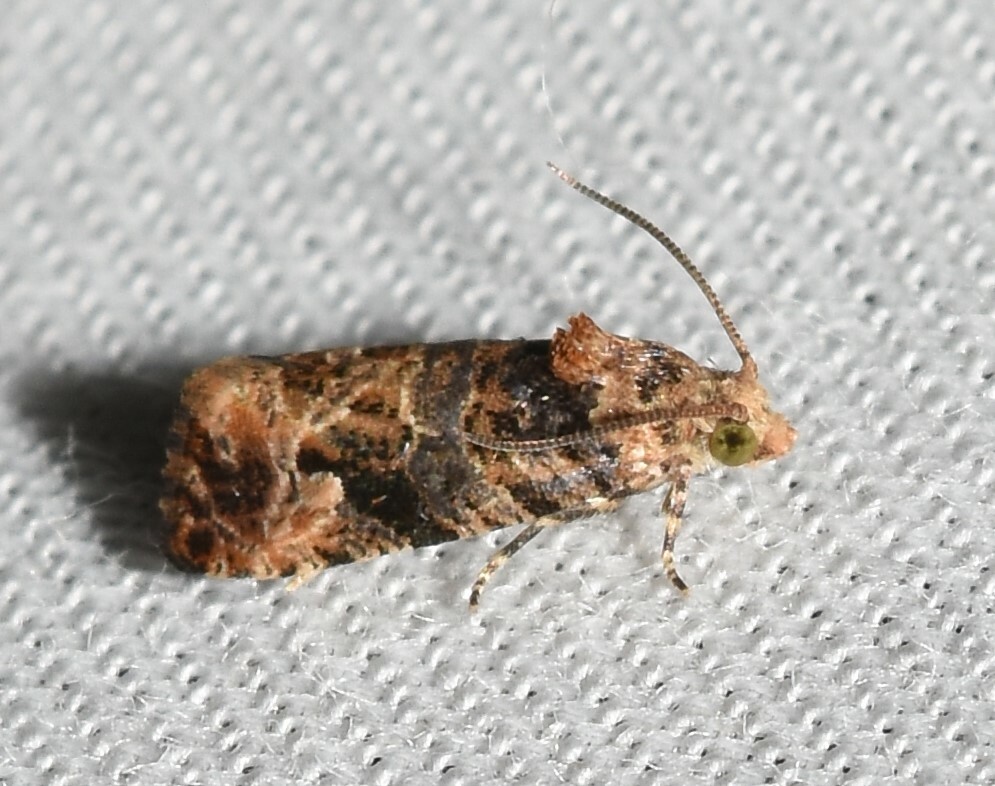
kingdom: Animalia
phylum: Arthropoda
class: Insecta
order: Lepidoptera
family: Tortricidae
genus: Endothenia
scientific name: Endothenia hebesana
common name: Verbena bud moth
